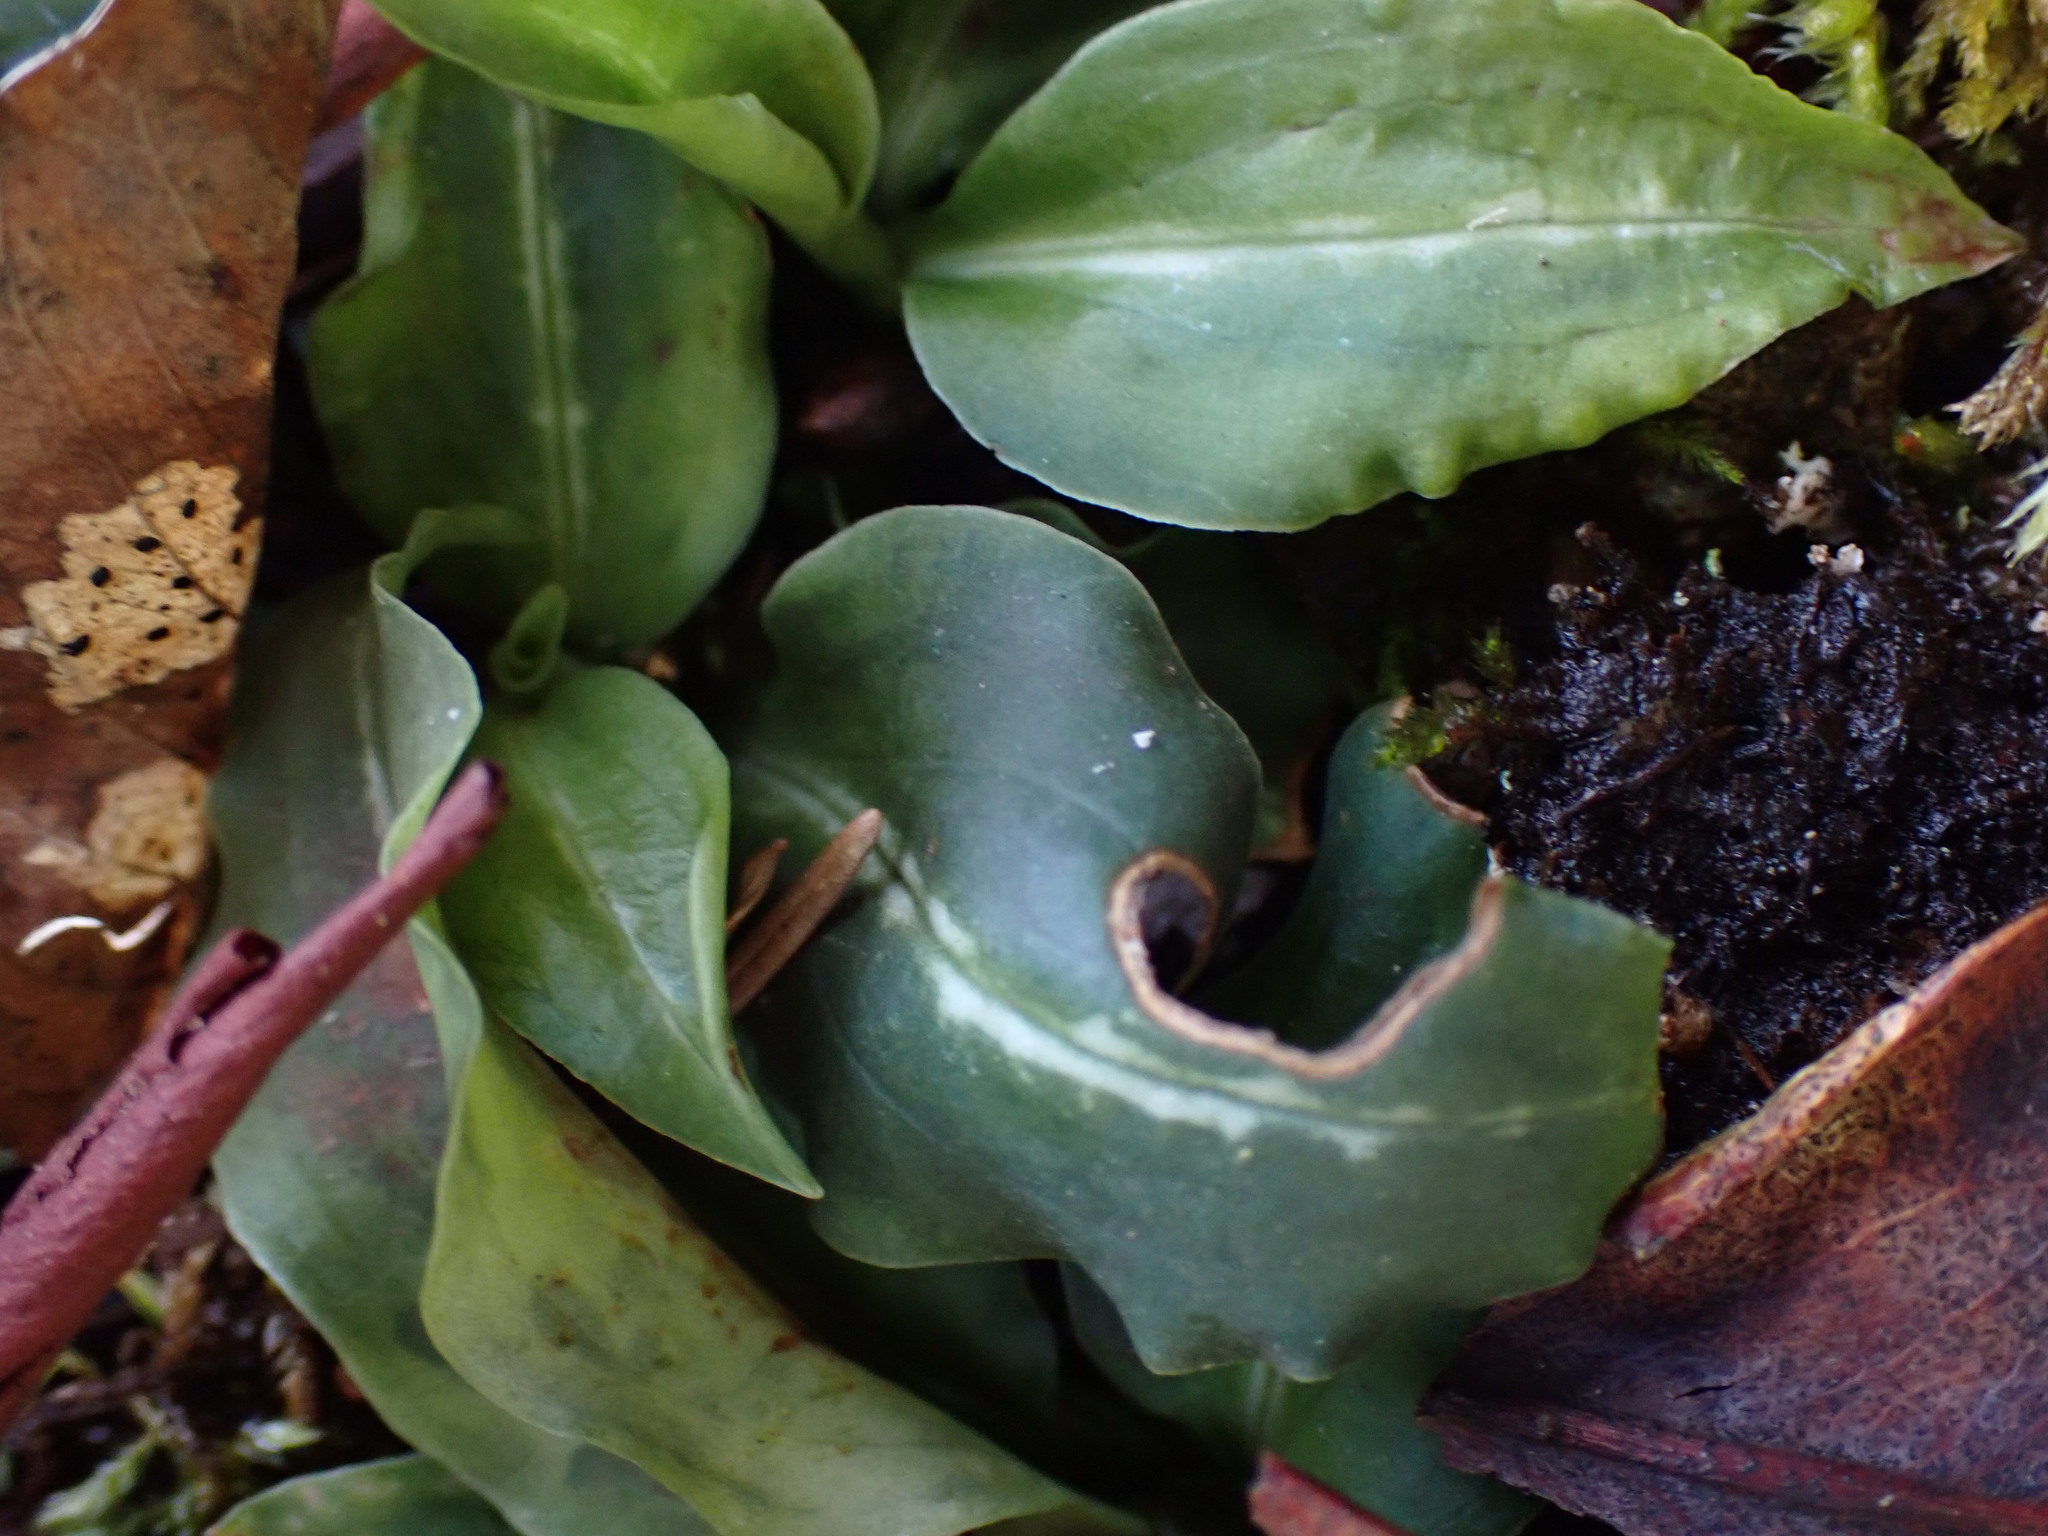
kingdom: Plantae
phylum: Tracheophyta
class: Liliopsida
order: Asparagales
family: Orchidaceae
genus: Goodyera
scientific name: Goodyera oblongifolia
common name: Giant rattlesnake-plantain
